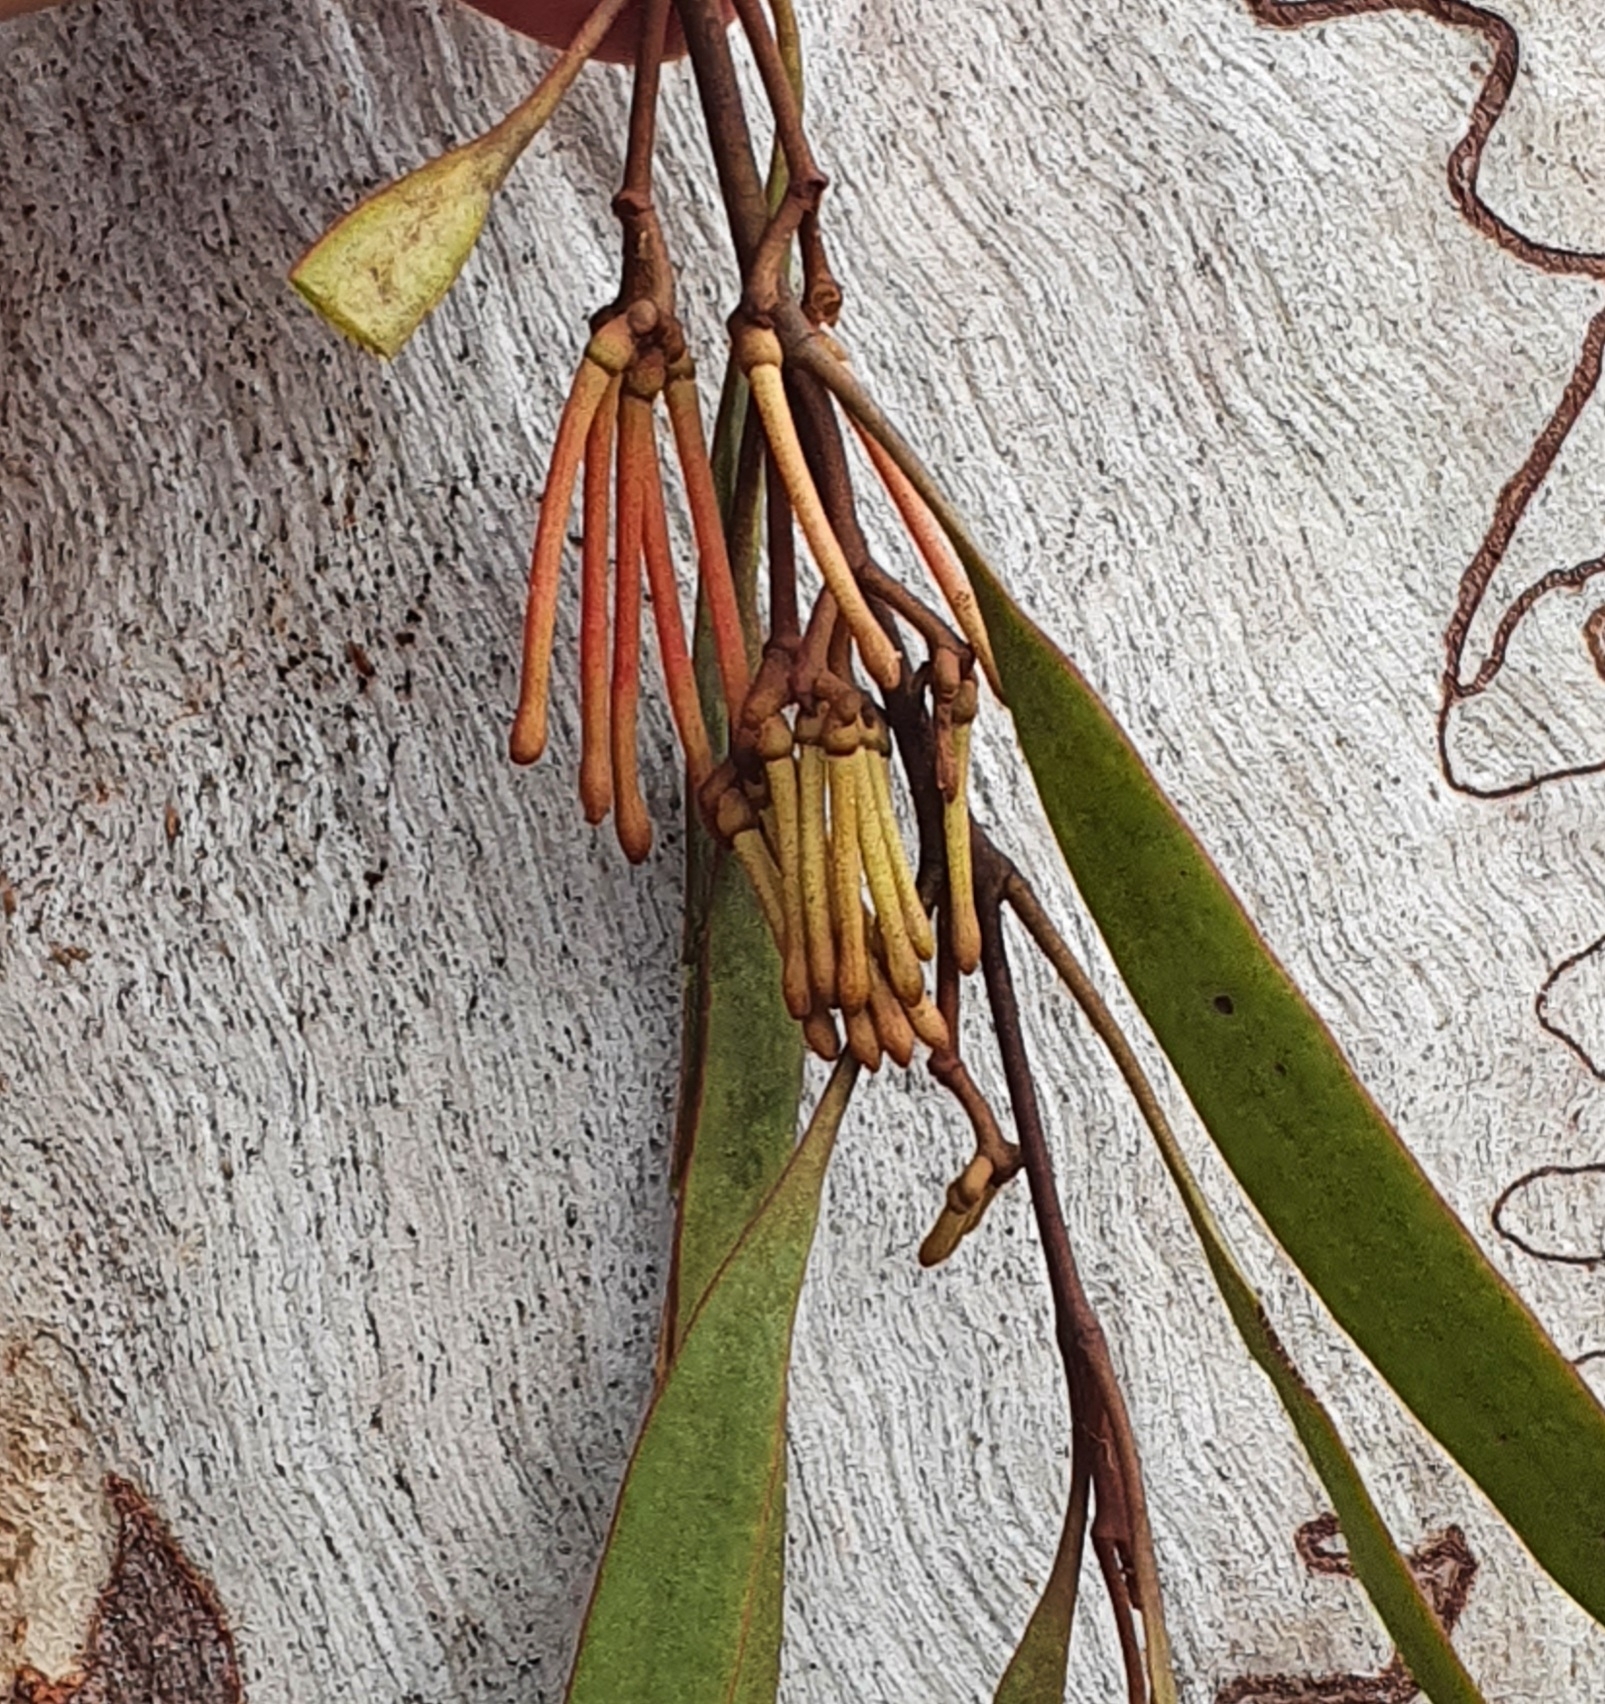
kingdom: Plantae
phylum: Tracheophyta
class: Magnoliopsida
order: Santalales
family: Loranthaceae
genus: Amyema
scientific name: Amyema pendula
